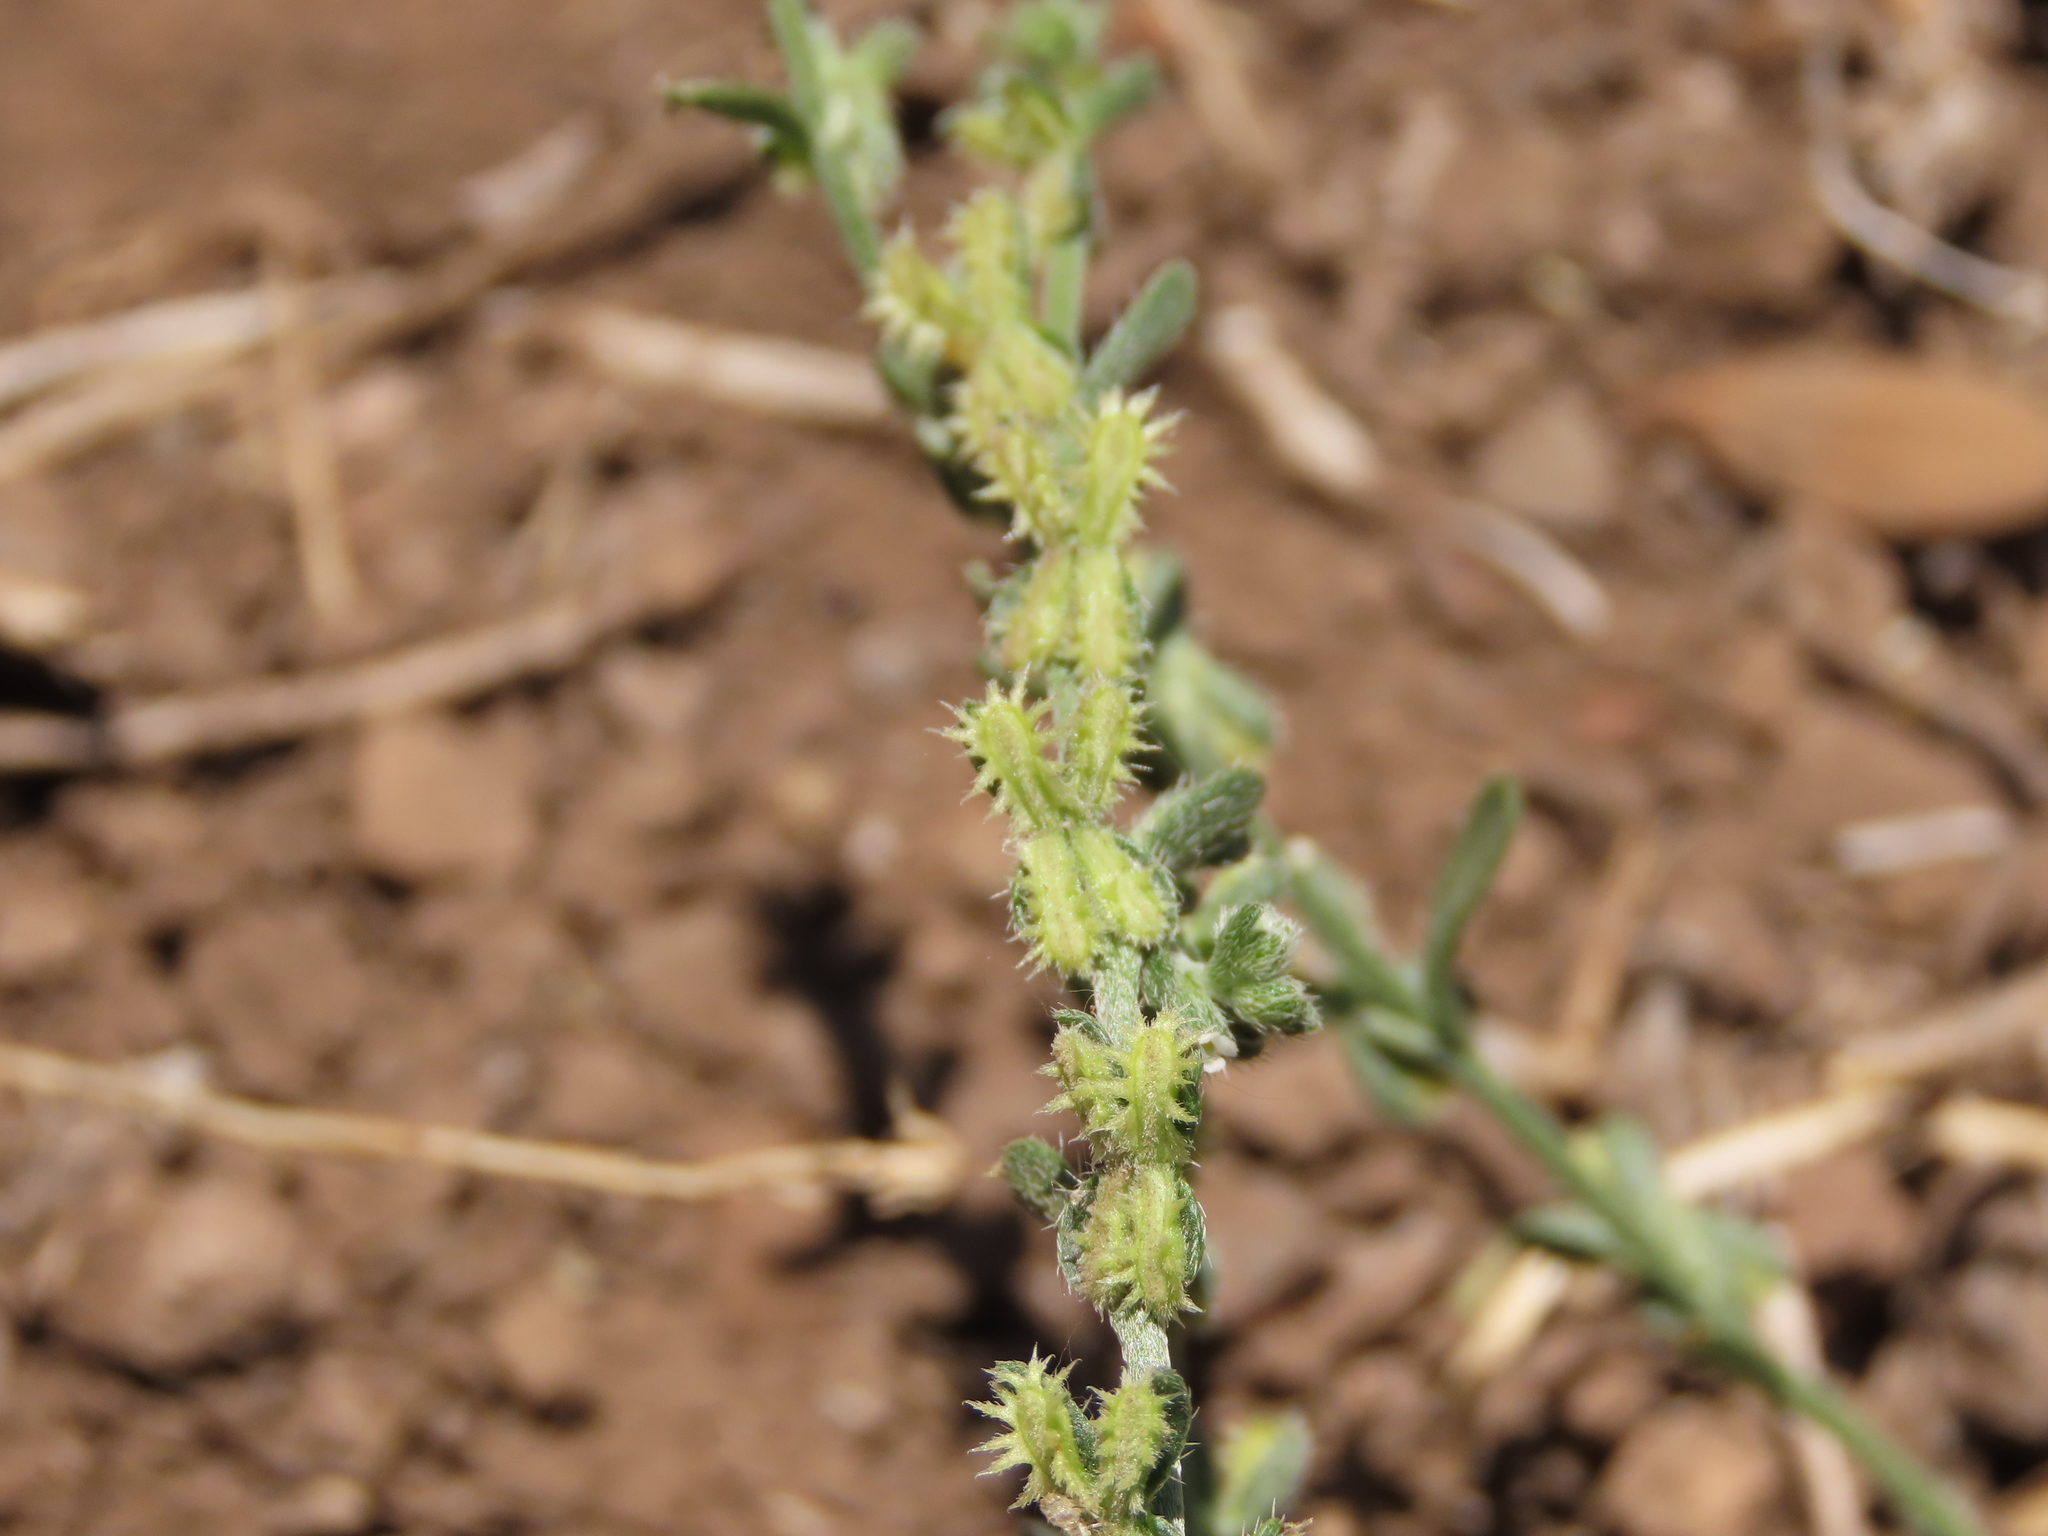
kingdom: Plantae
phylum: Tracheophyta
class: Magnoliopsida
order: Boraginales
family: Boraginaceae
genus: Pectocarya
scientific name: Pectocarya linearis
